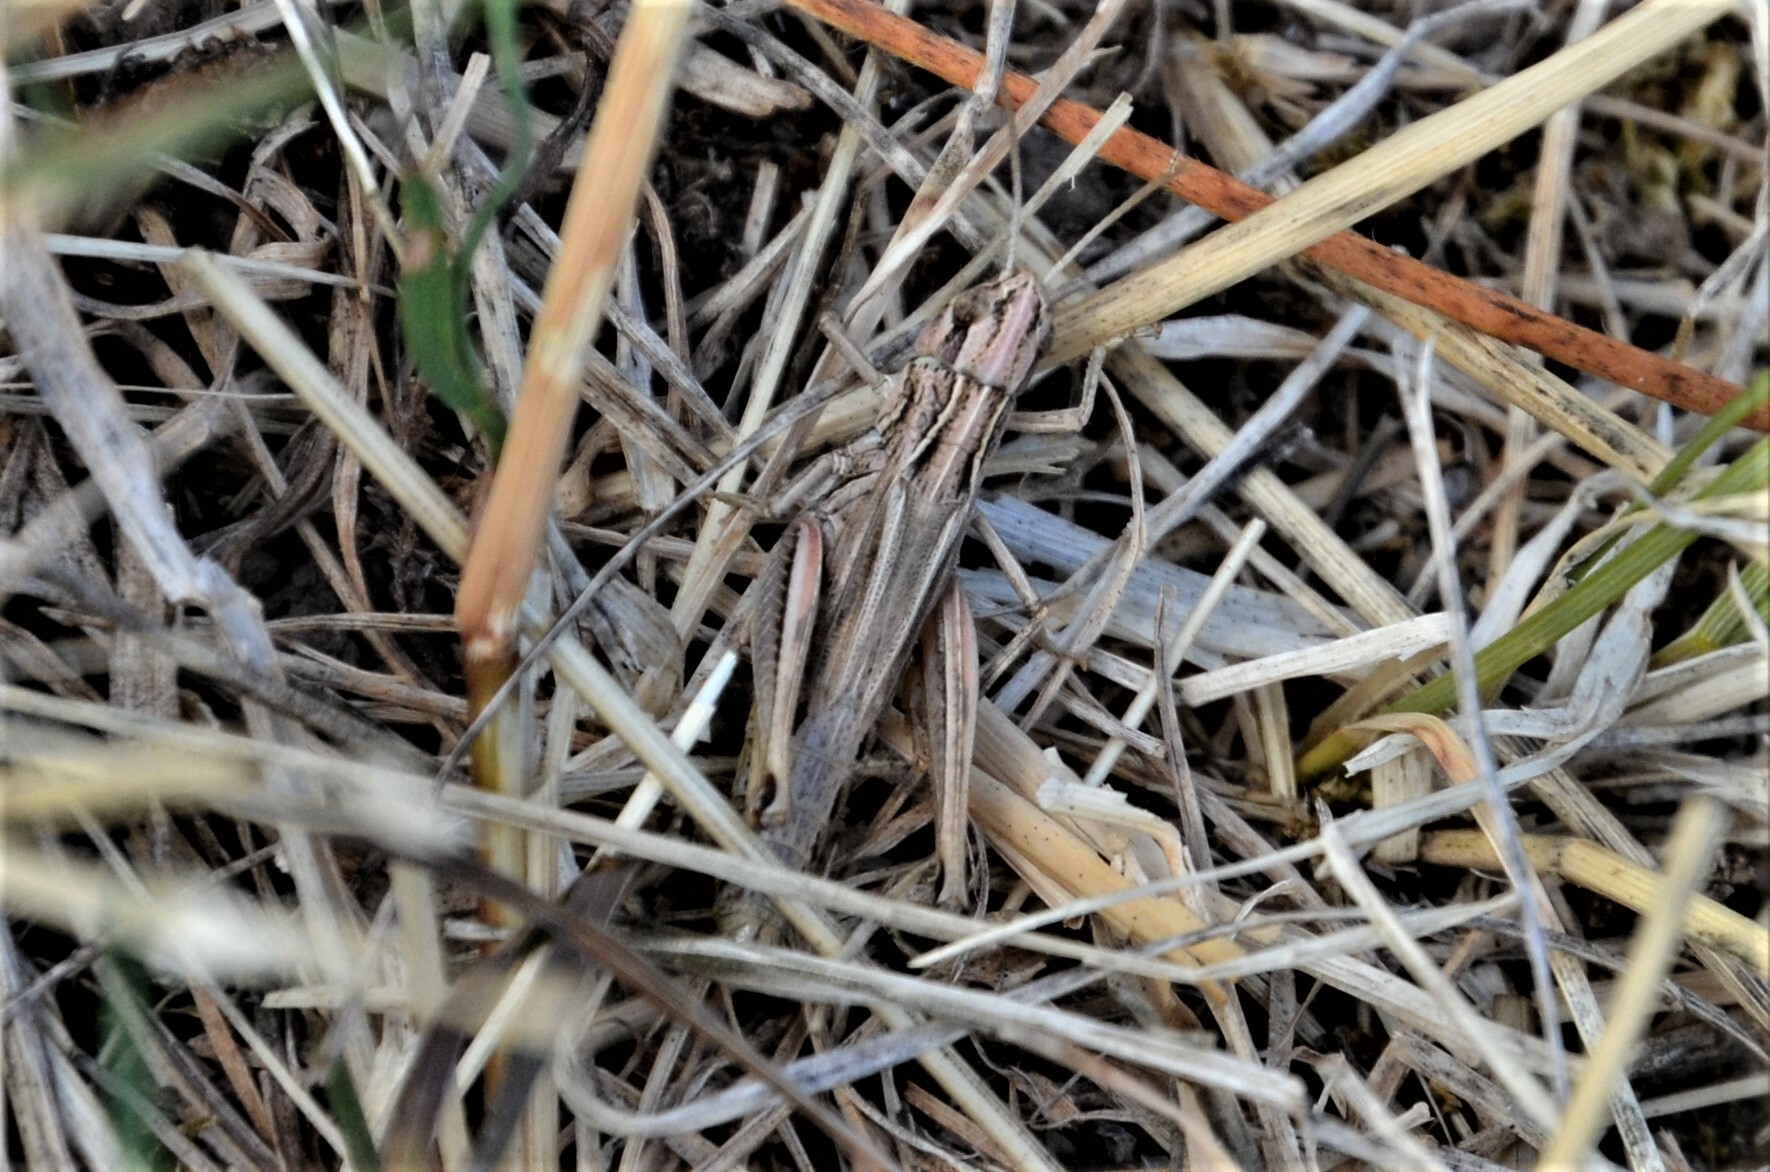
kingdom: Animalia
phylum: Arthropoda
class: Insecta
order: Orthoptera
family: Acrididae
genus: Pseudochorthippus
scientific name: Pseudochorthippus parallelus
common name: Meadow grasshopper
